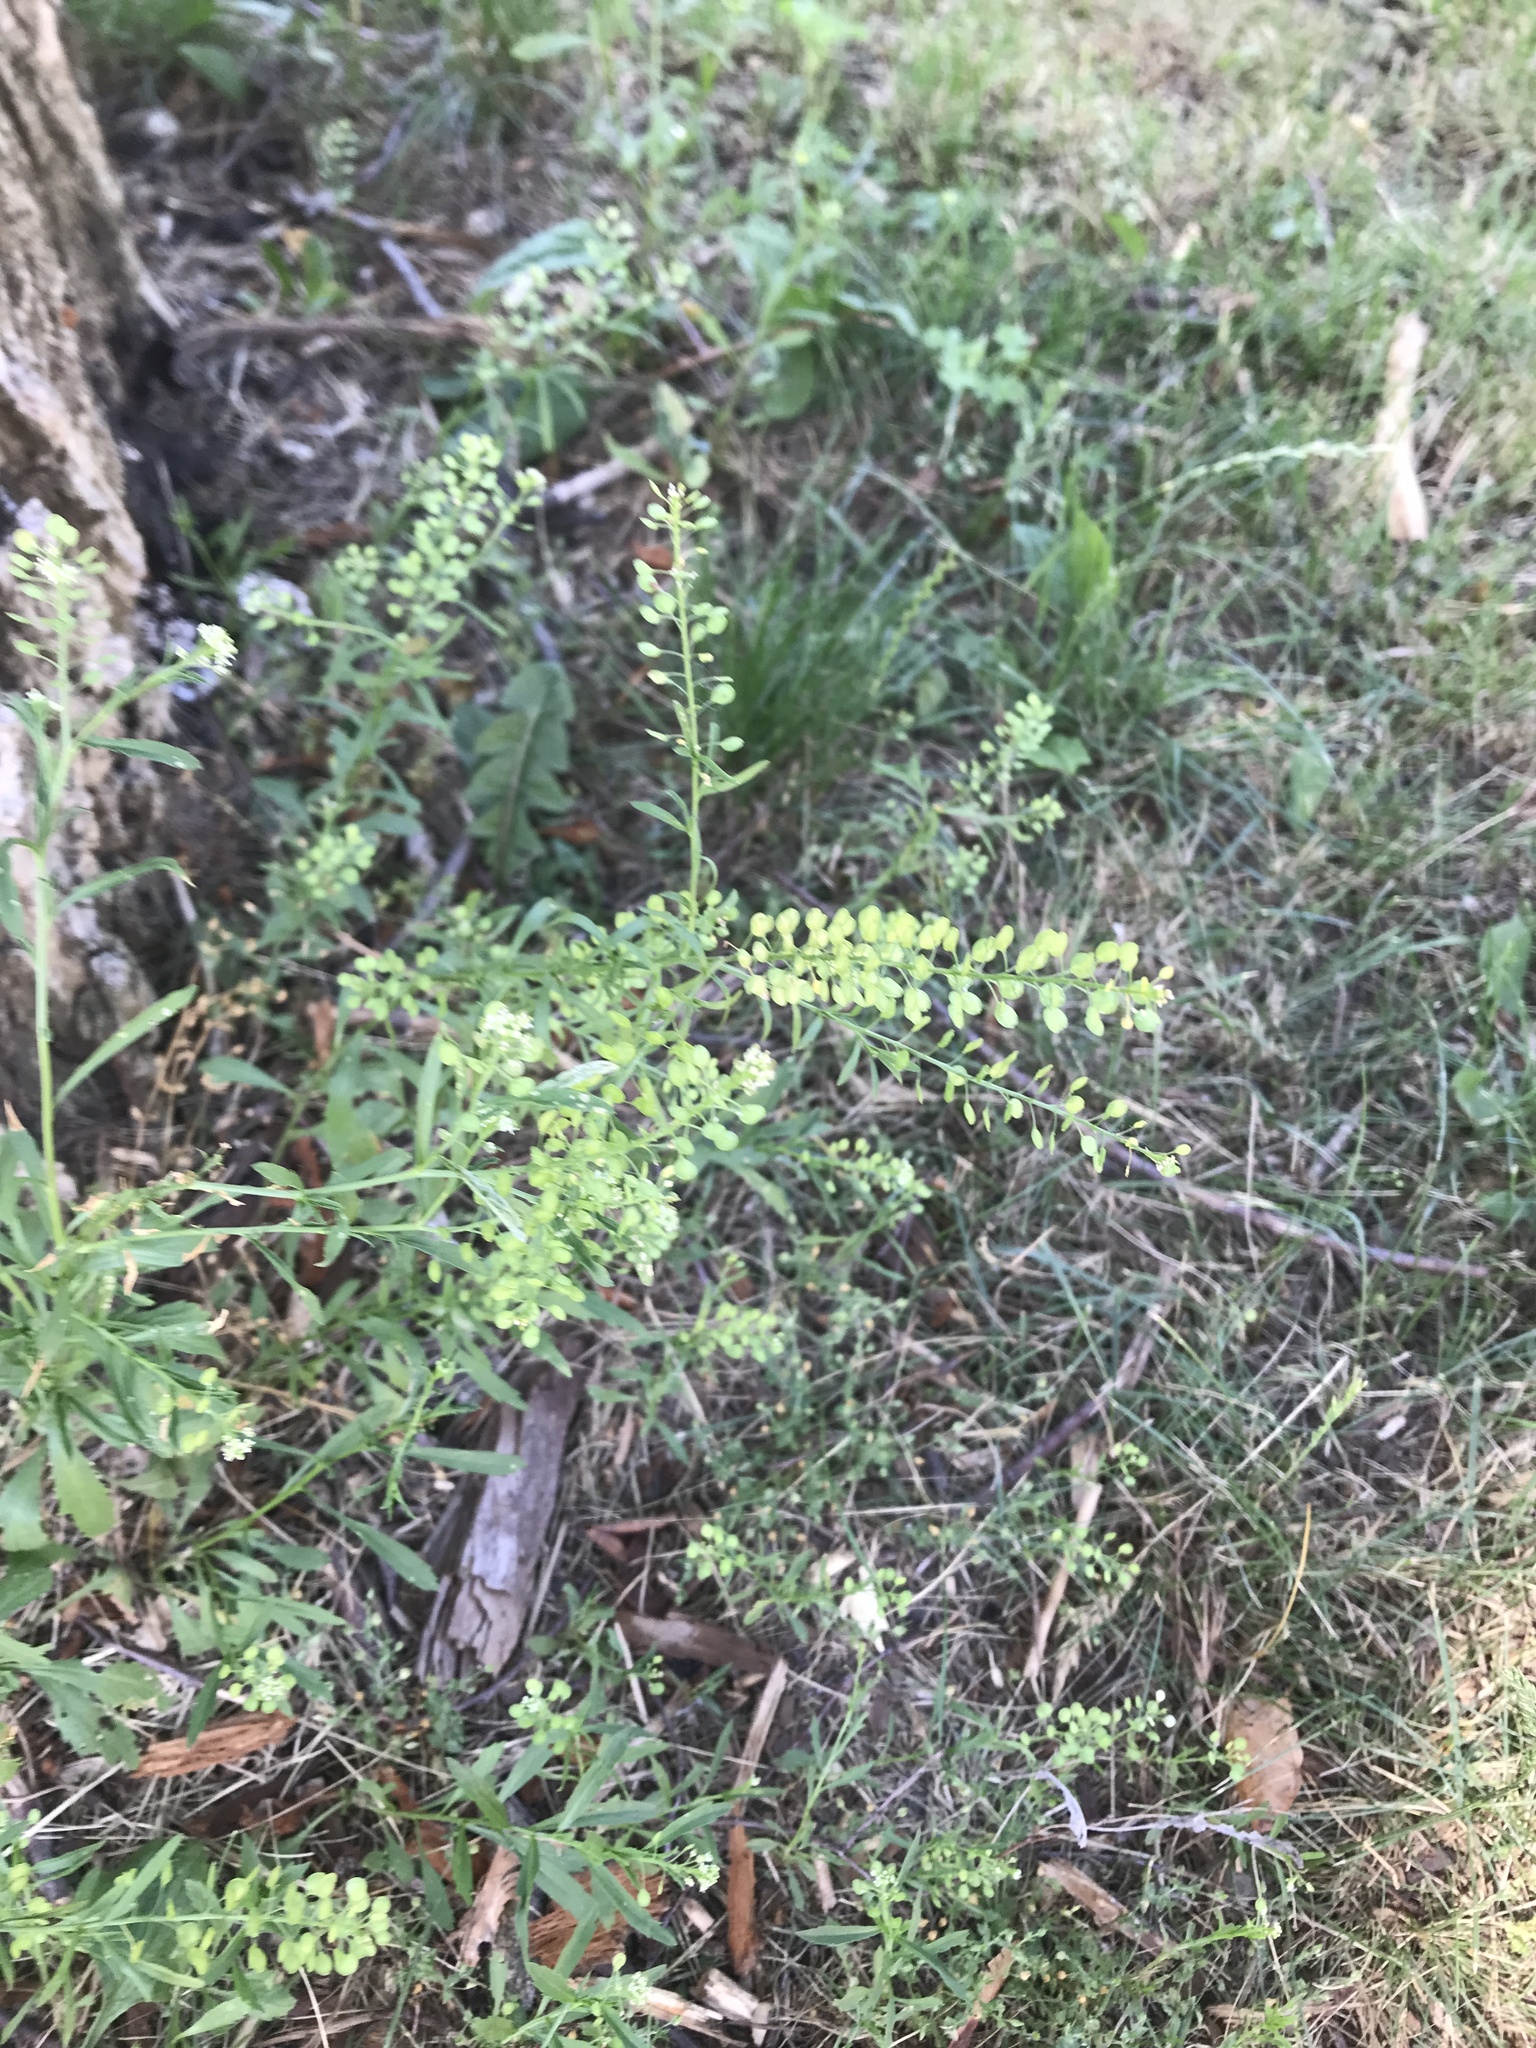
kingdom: Plantae
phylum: Tracheophyta
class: Magnoliopsida
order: Brassicales
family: Brassicaceae
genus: Lepidium
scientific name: Lepidium virginicum
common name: Least pepperwort
